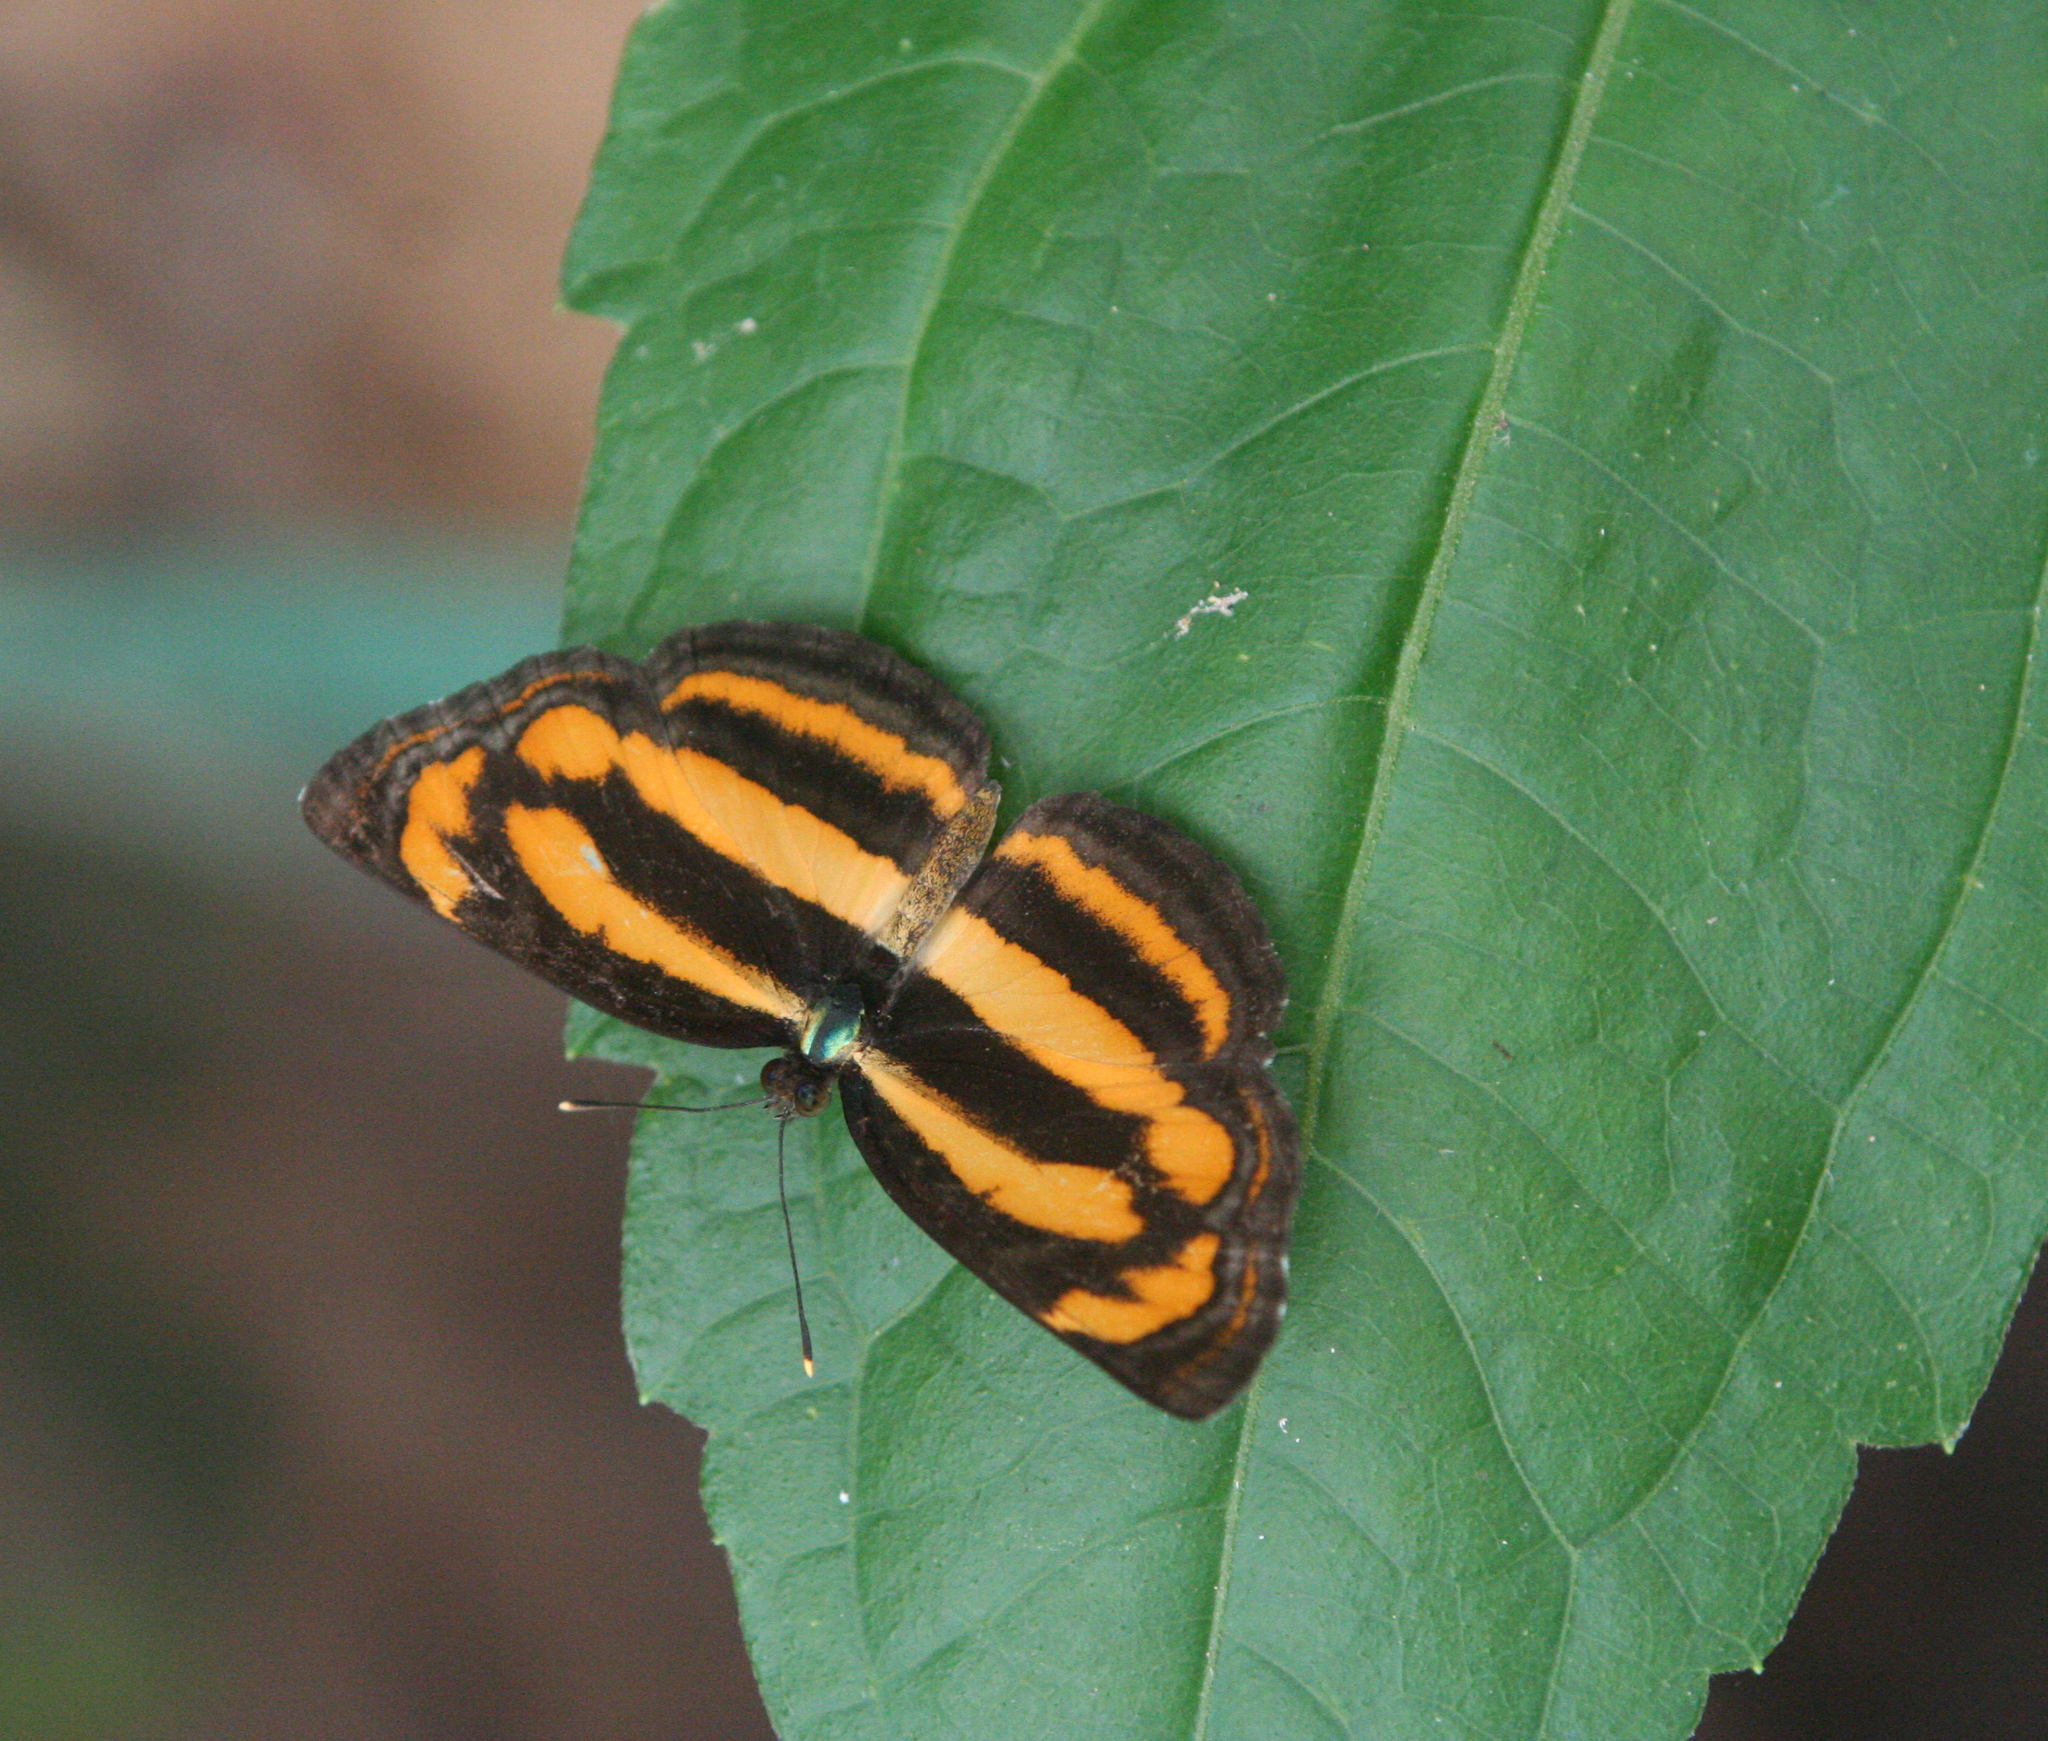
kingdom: Animalia
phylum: Arthropoda
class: Insecta
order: Lepidoptera
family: Nymphalidae
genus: Pantoporia
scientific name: Pantoporia hordonia
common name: Common lascar
